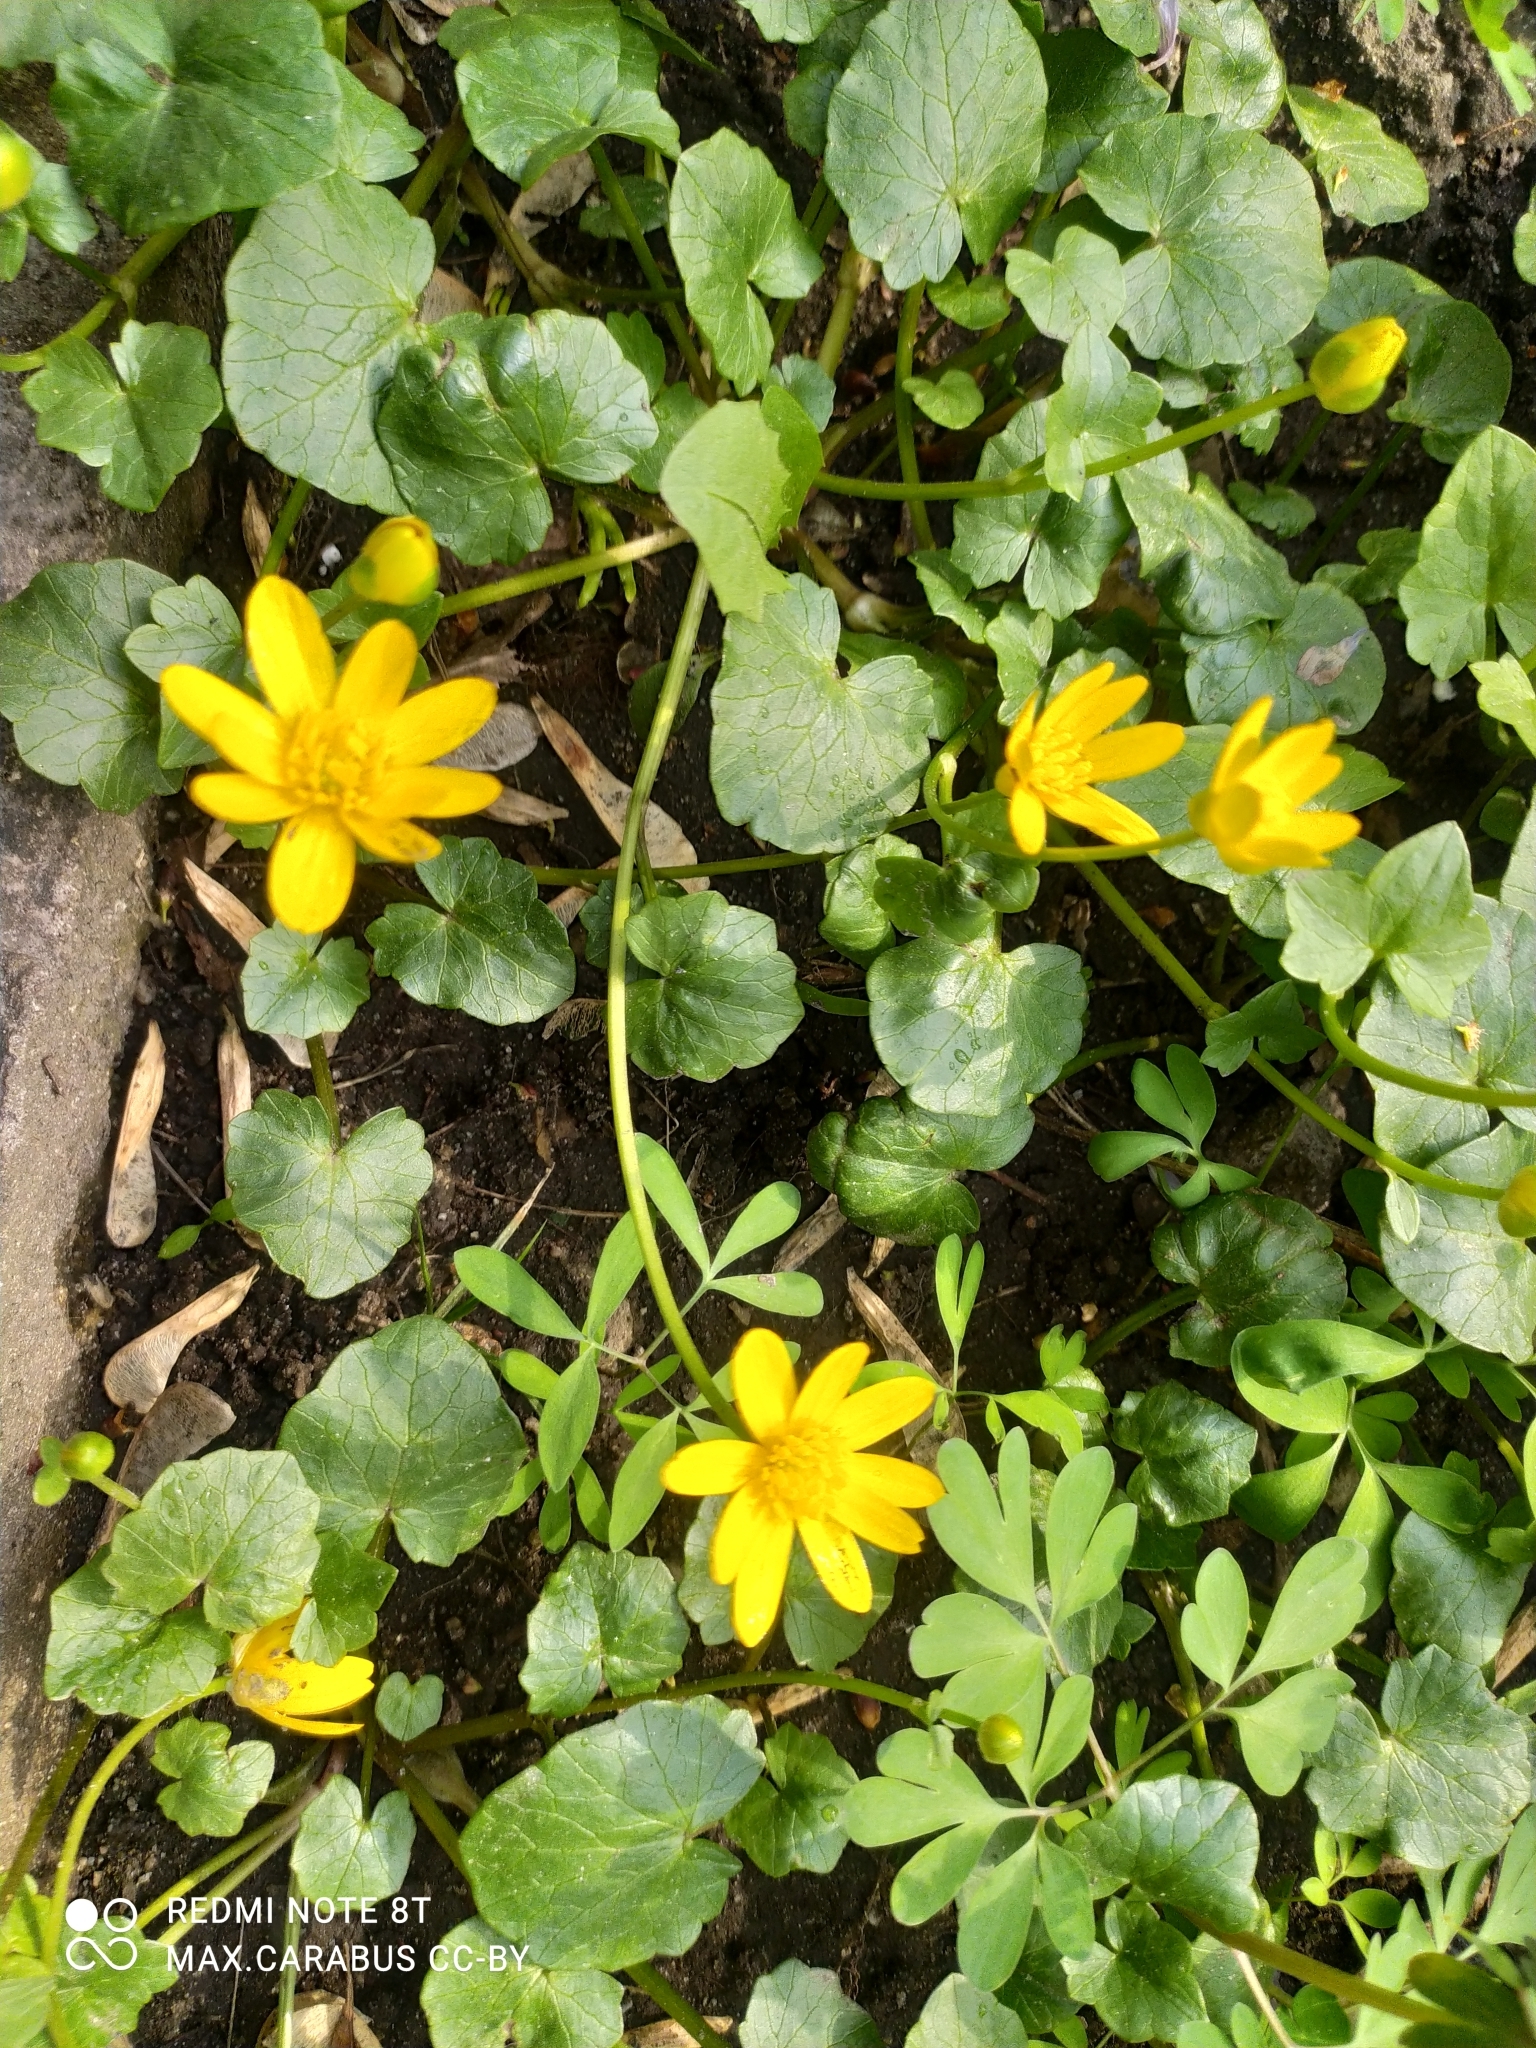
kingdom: Plantae
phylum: Tracheophyta
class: Magnoliopsida
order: Ranunculales
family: Ranunculaceae
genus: Ficaria
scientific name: Ficaria verna
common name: Lesser celandine
